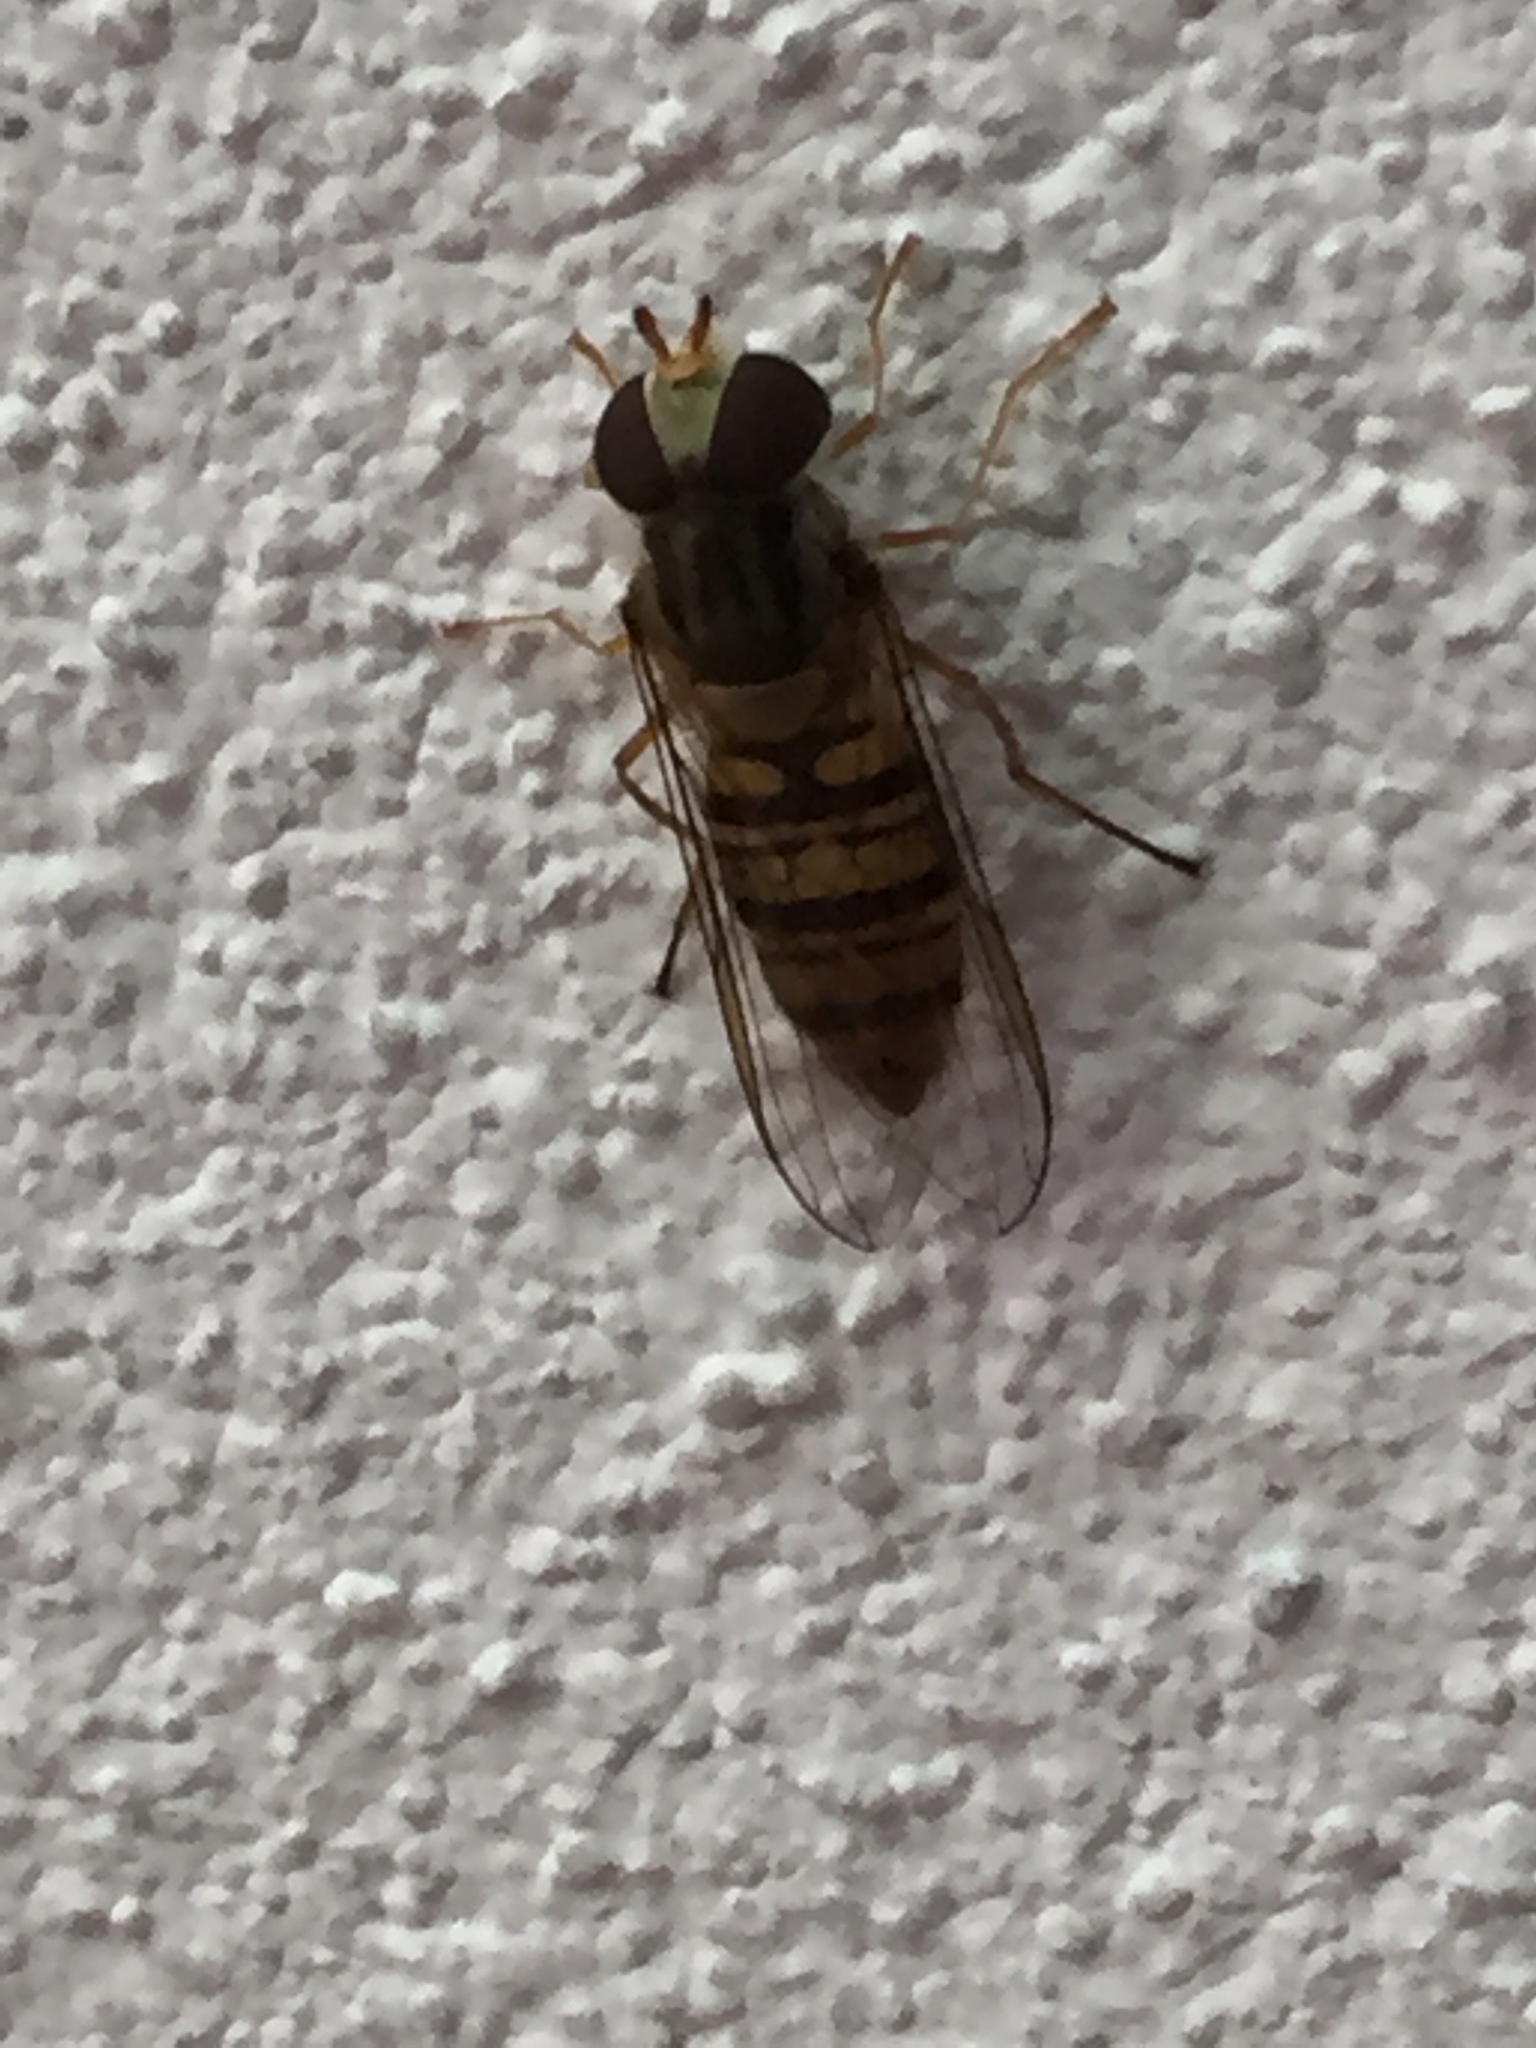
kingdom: Animalia
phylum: Arthropoda
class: Insecta
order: Diptera
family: Syrphidae
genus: Episyrphus
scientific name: Episyrphus balteatus
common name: Marmalade hoverfly
